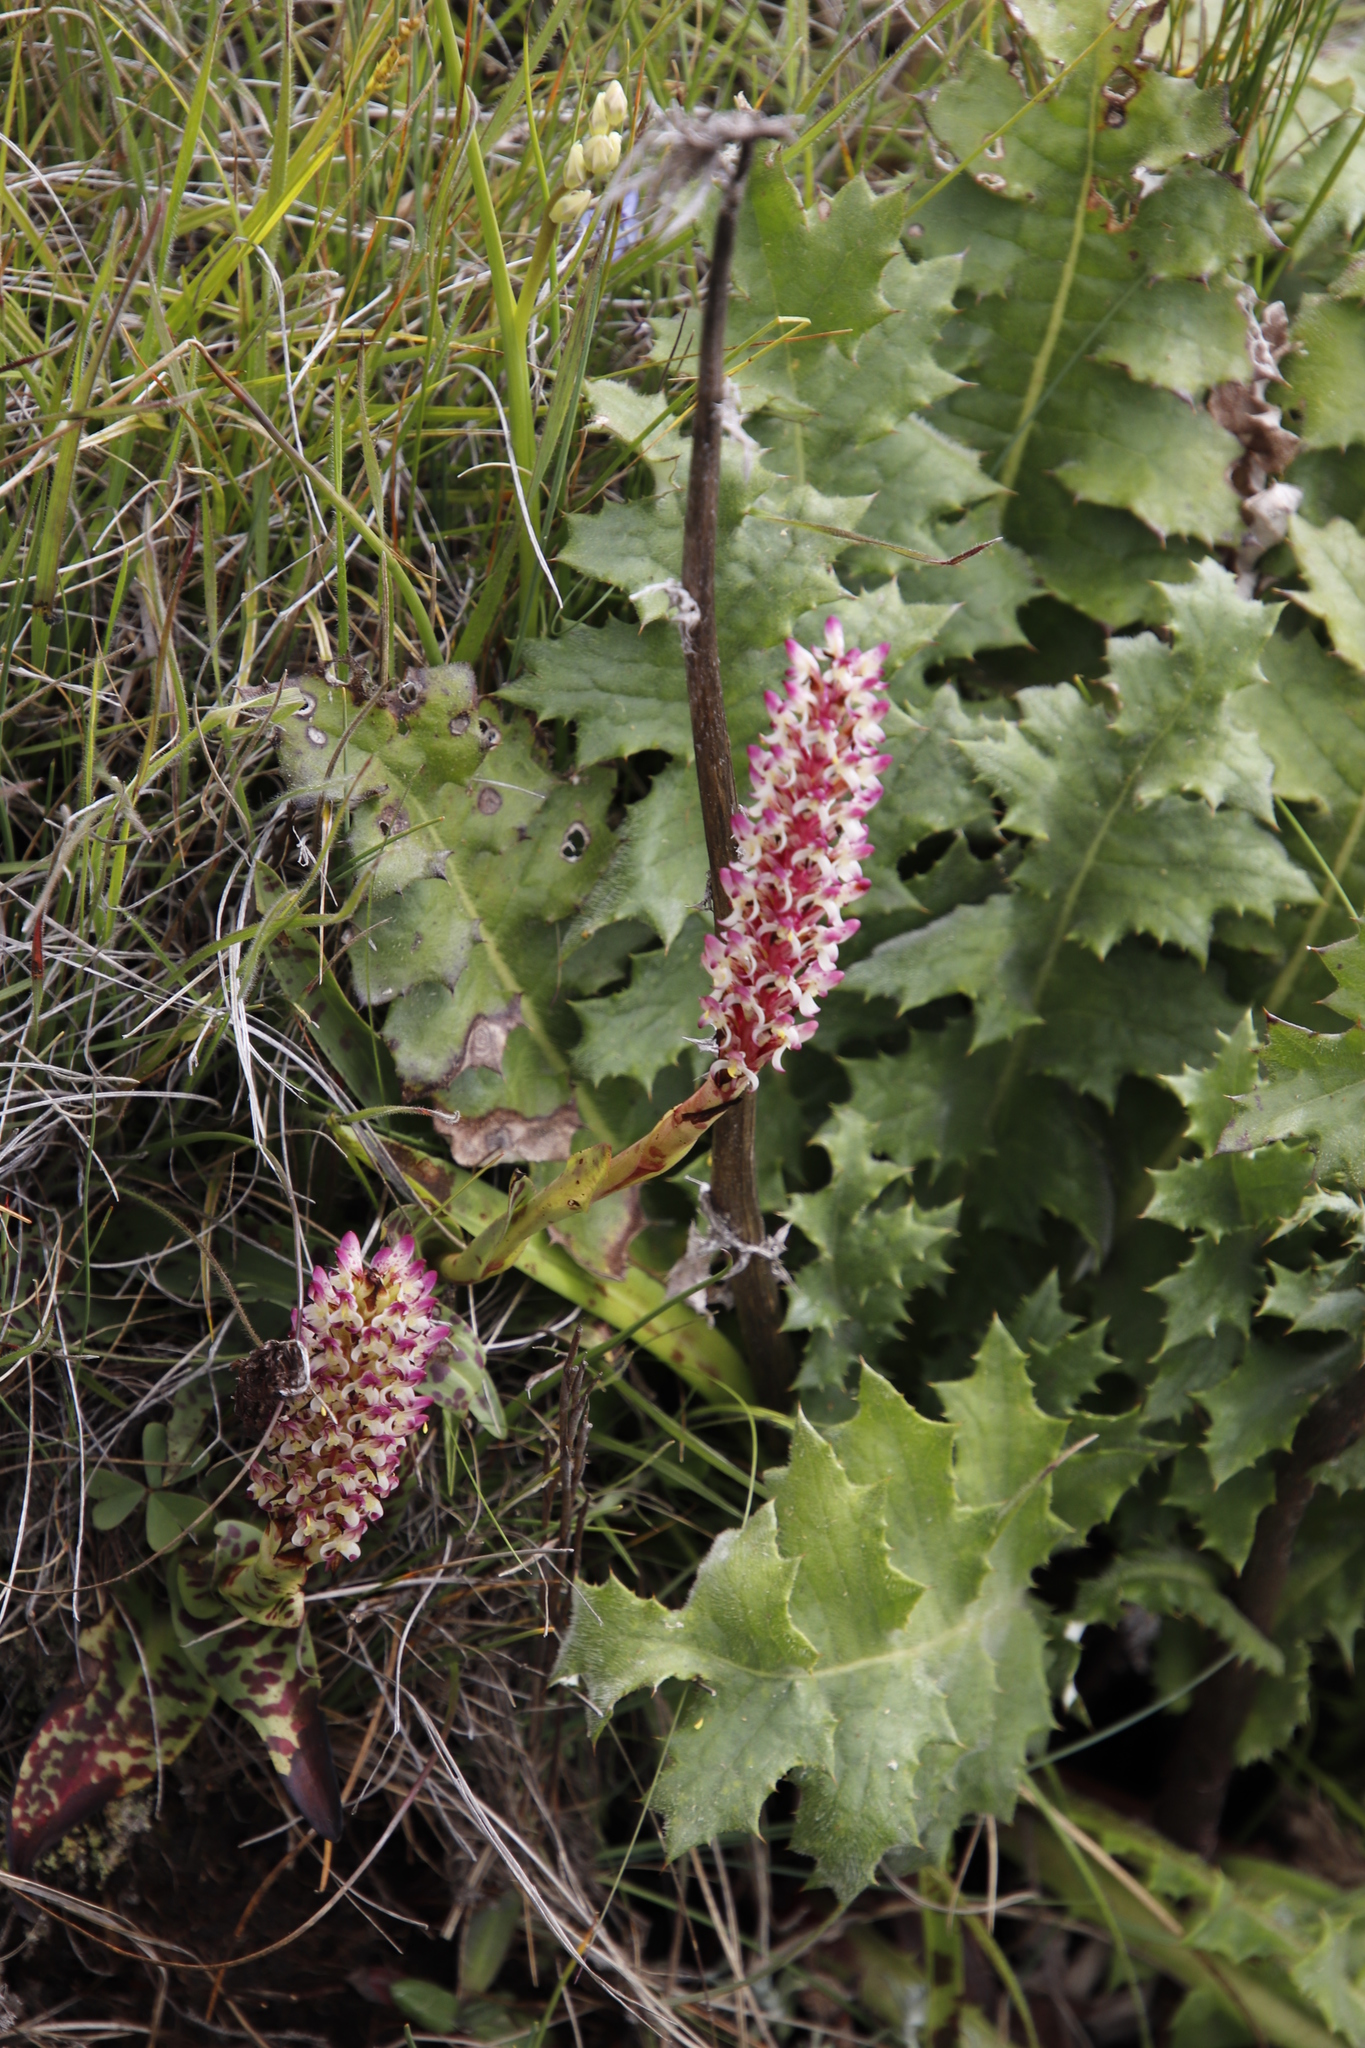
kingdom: Plantae
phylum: Tracheophyta
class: Liliopsida
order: Asparagales
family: Orchidaceae
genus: Disa
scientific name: Disa fragrans
